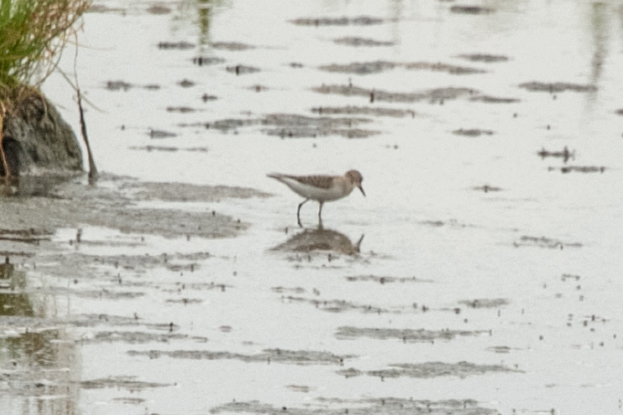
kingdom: Animalia
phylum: Chordata
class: Aves
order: Charadriiformes
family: Scolopacidae
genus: Calidris
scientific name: Calidris ruficollis
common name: Red-necked stint
